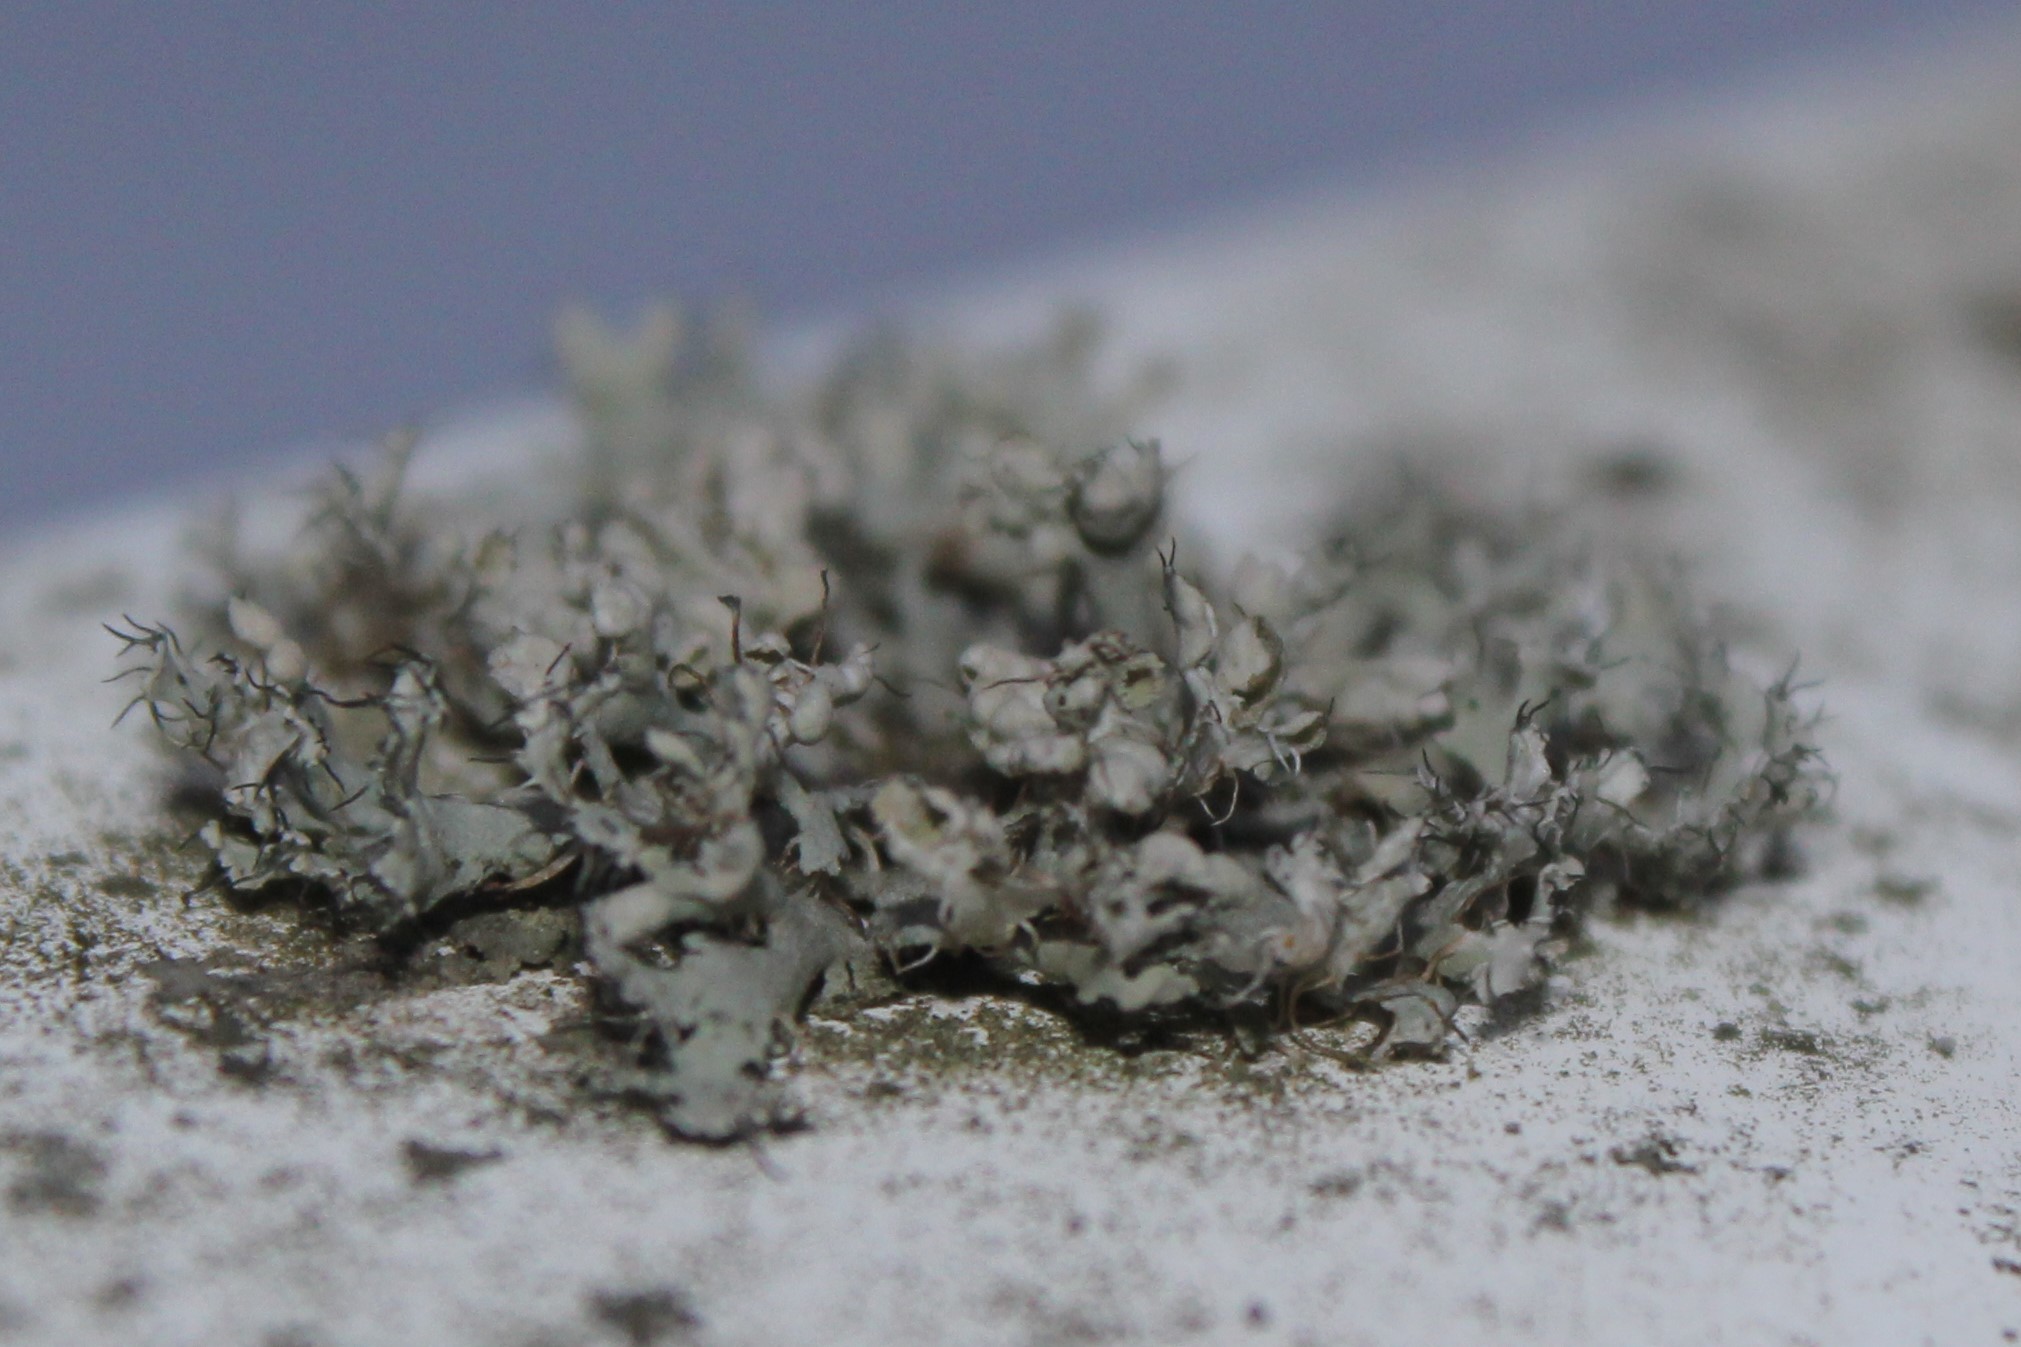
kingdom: Fungi
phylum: Ascomycota
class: Lecanoromycetes
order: Caliciales
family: Physciaceae
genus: Physcia
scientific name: Physcia adscendens
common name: Hooded rosette lichen
